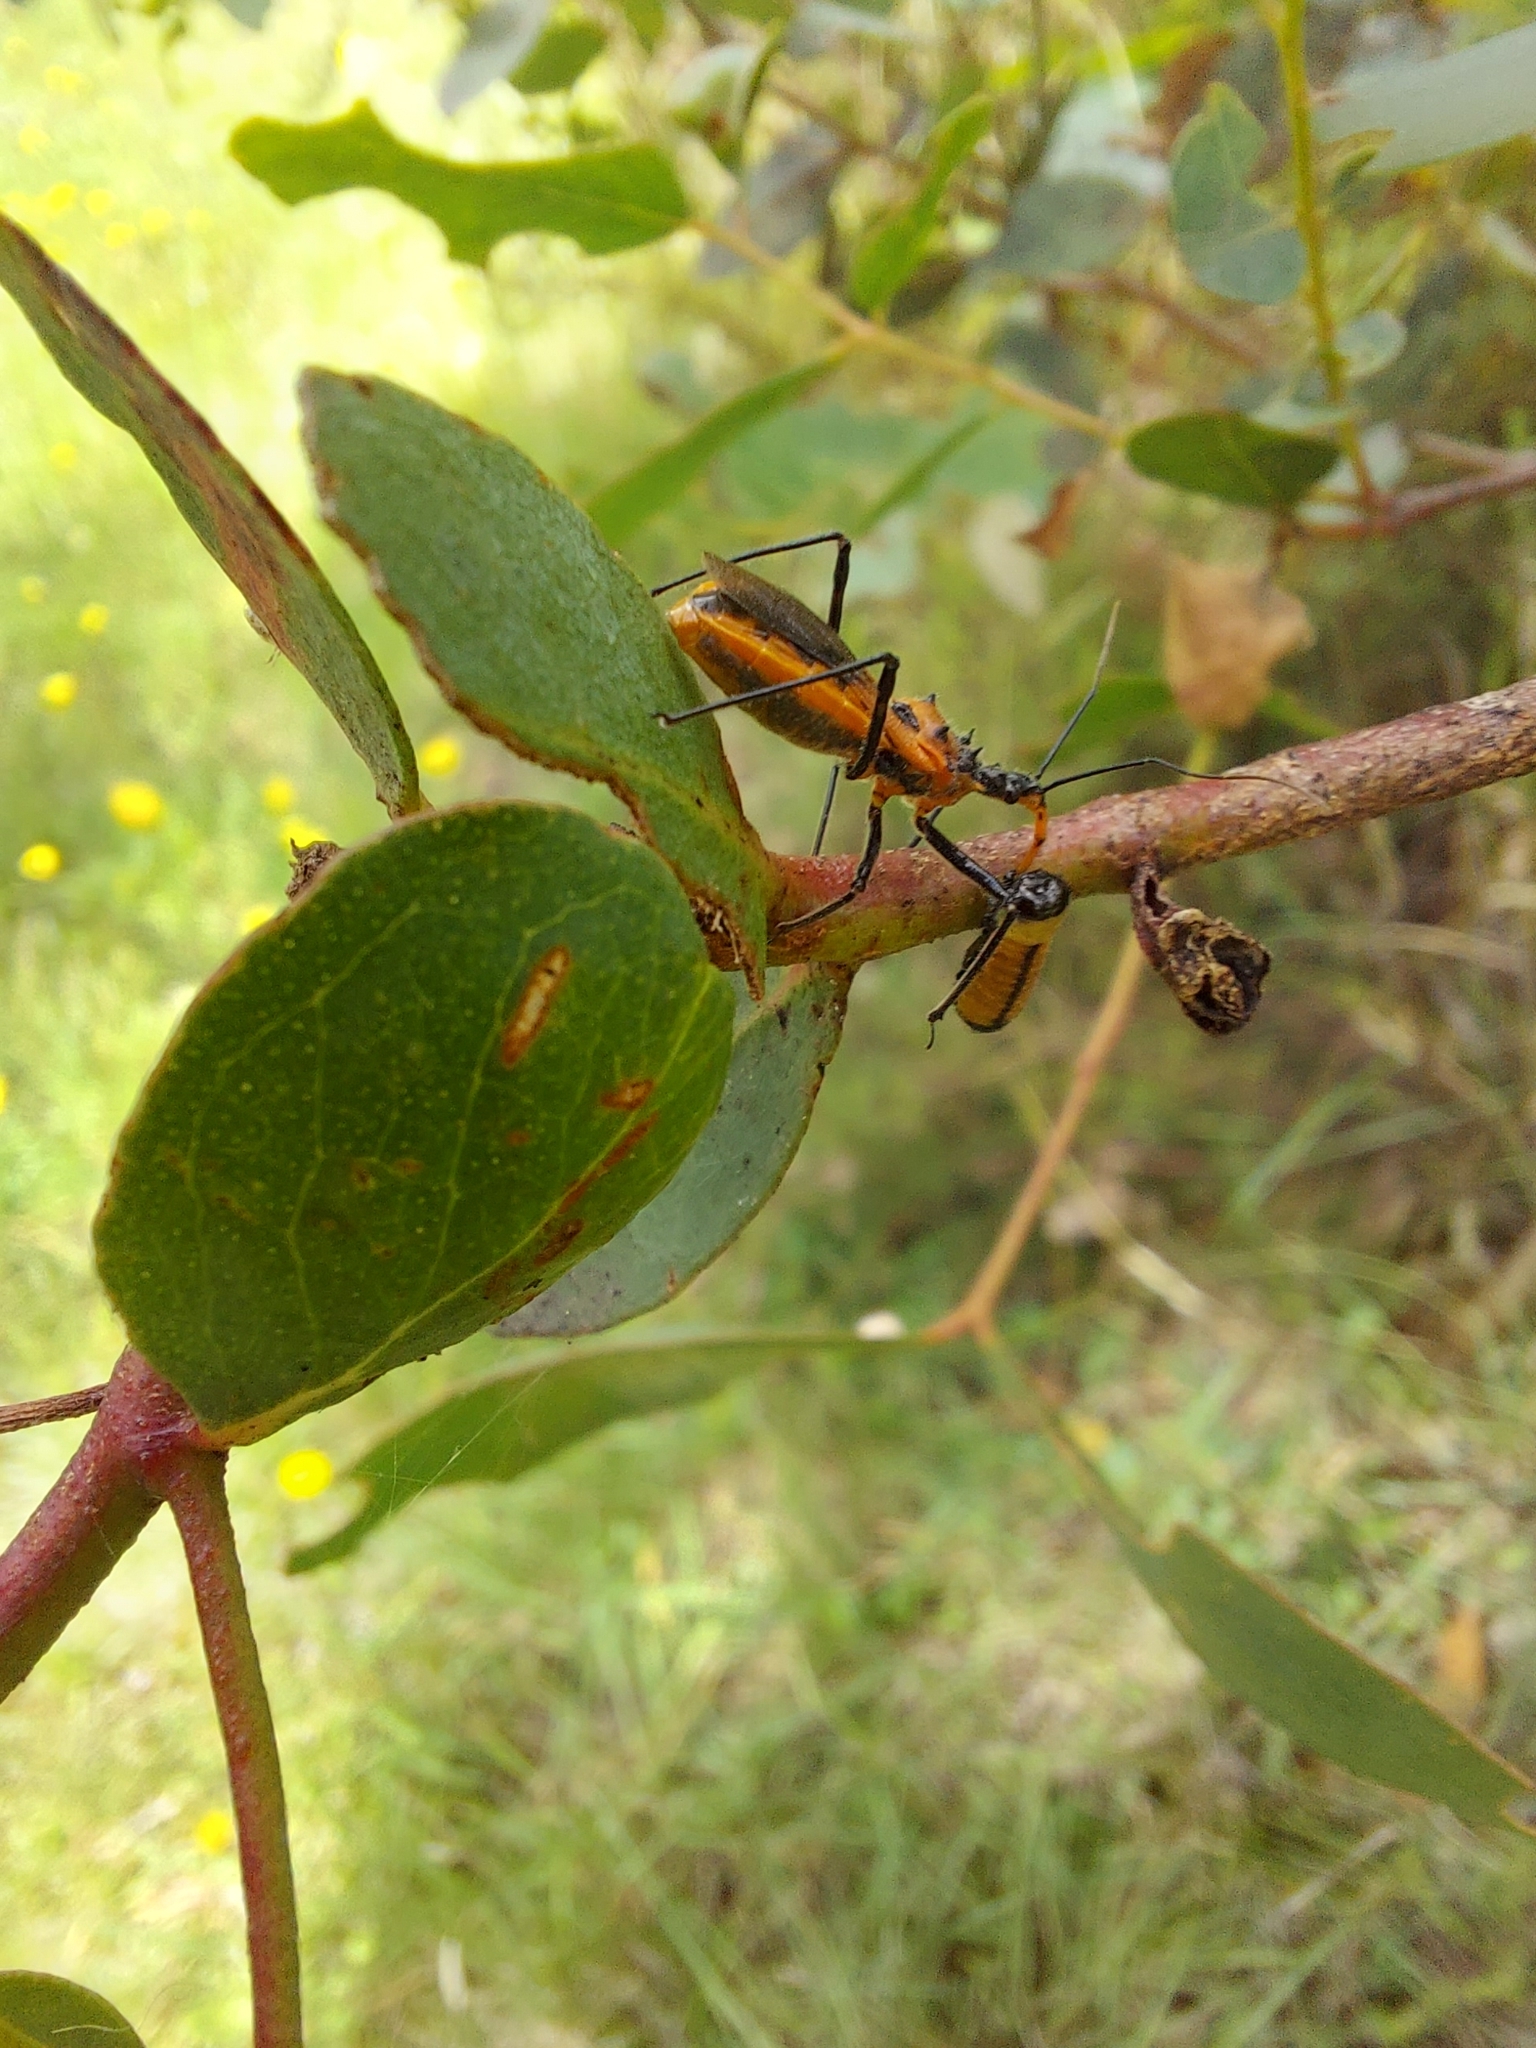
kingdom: Animalia
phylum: Arthropoda
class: Insecta
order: Hemiptera
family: Reduviidae
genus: Gminatus
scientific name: Gminatus australis
